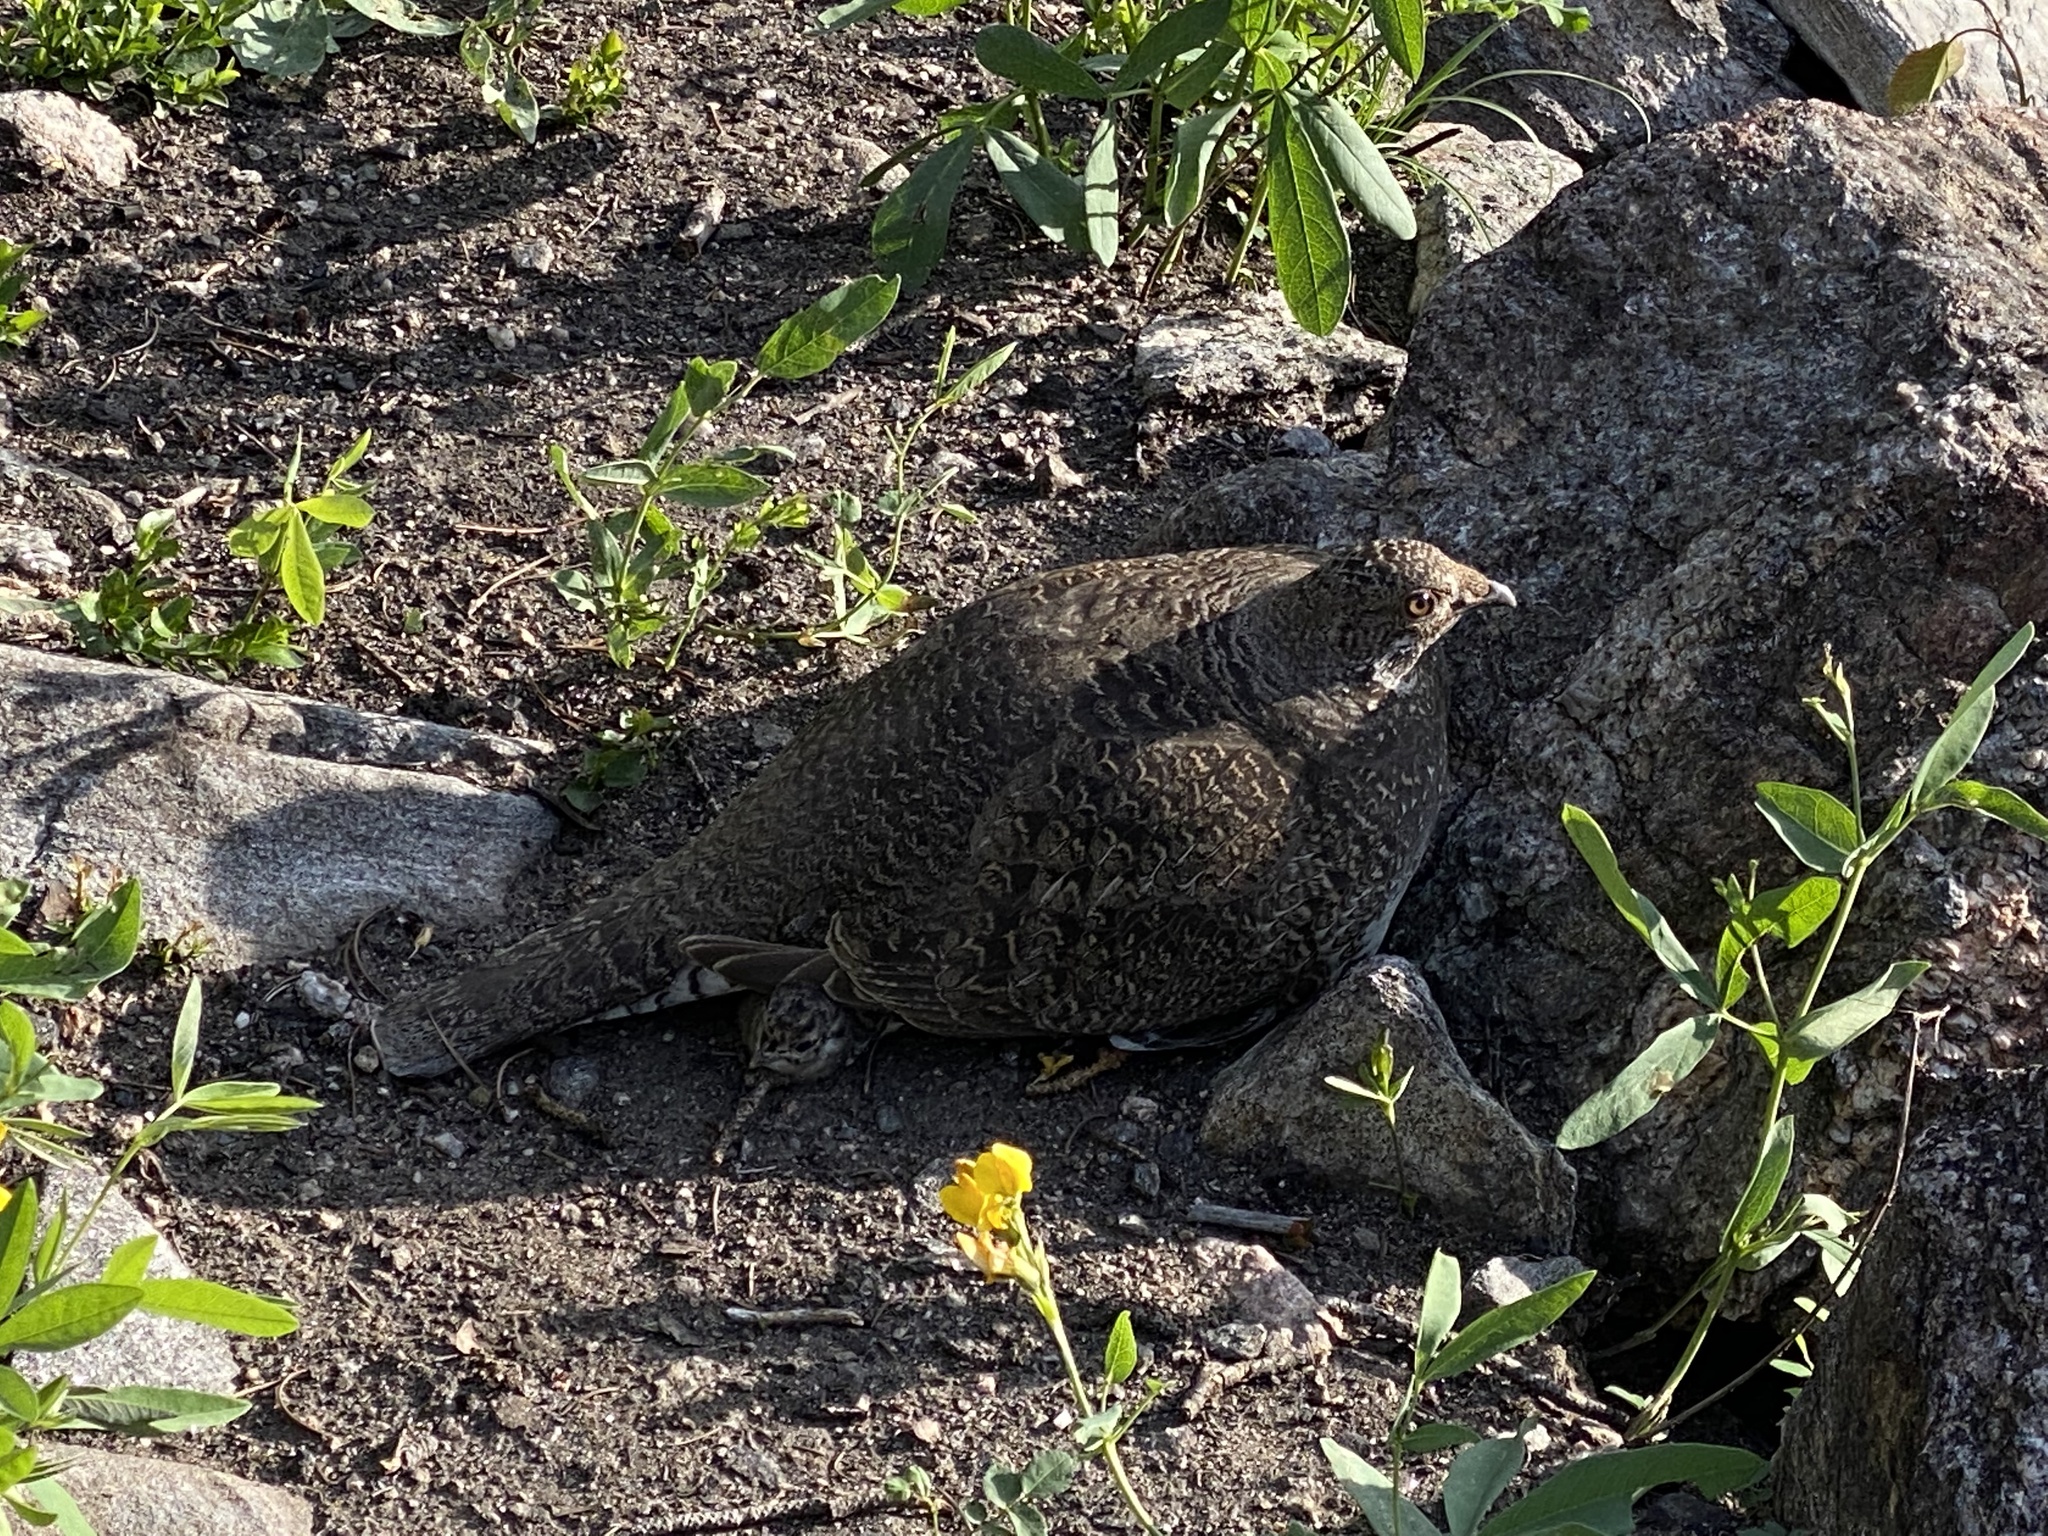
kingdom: Animalia
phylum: Chordata
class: Aves
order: Galliformes
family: Phasianidae
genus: Dendragapus
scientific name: Dendragapus obscurus
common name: Dusky grouse
